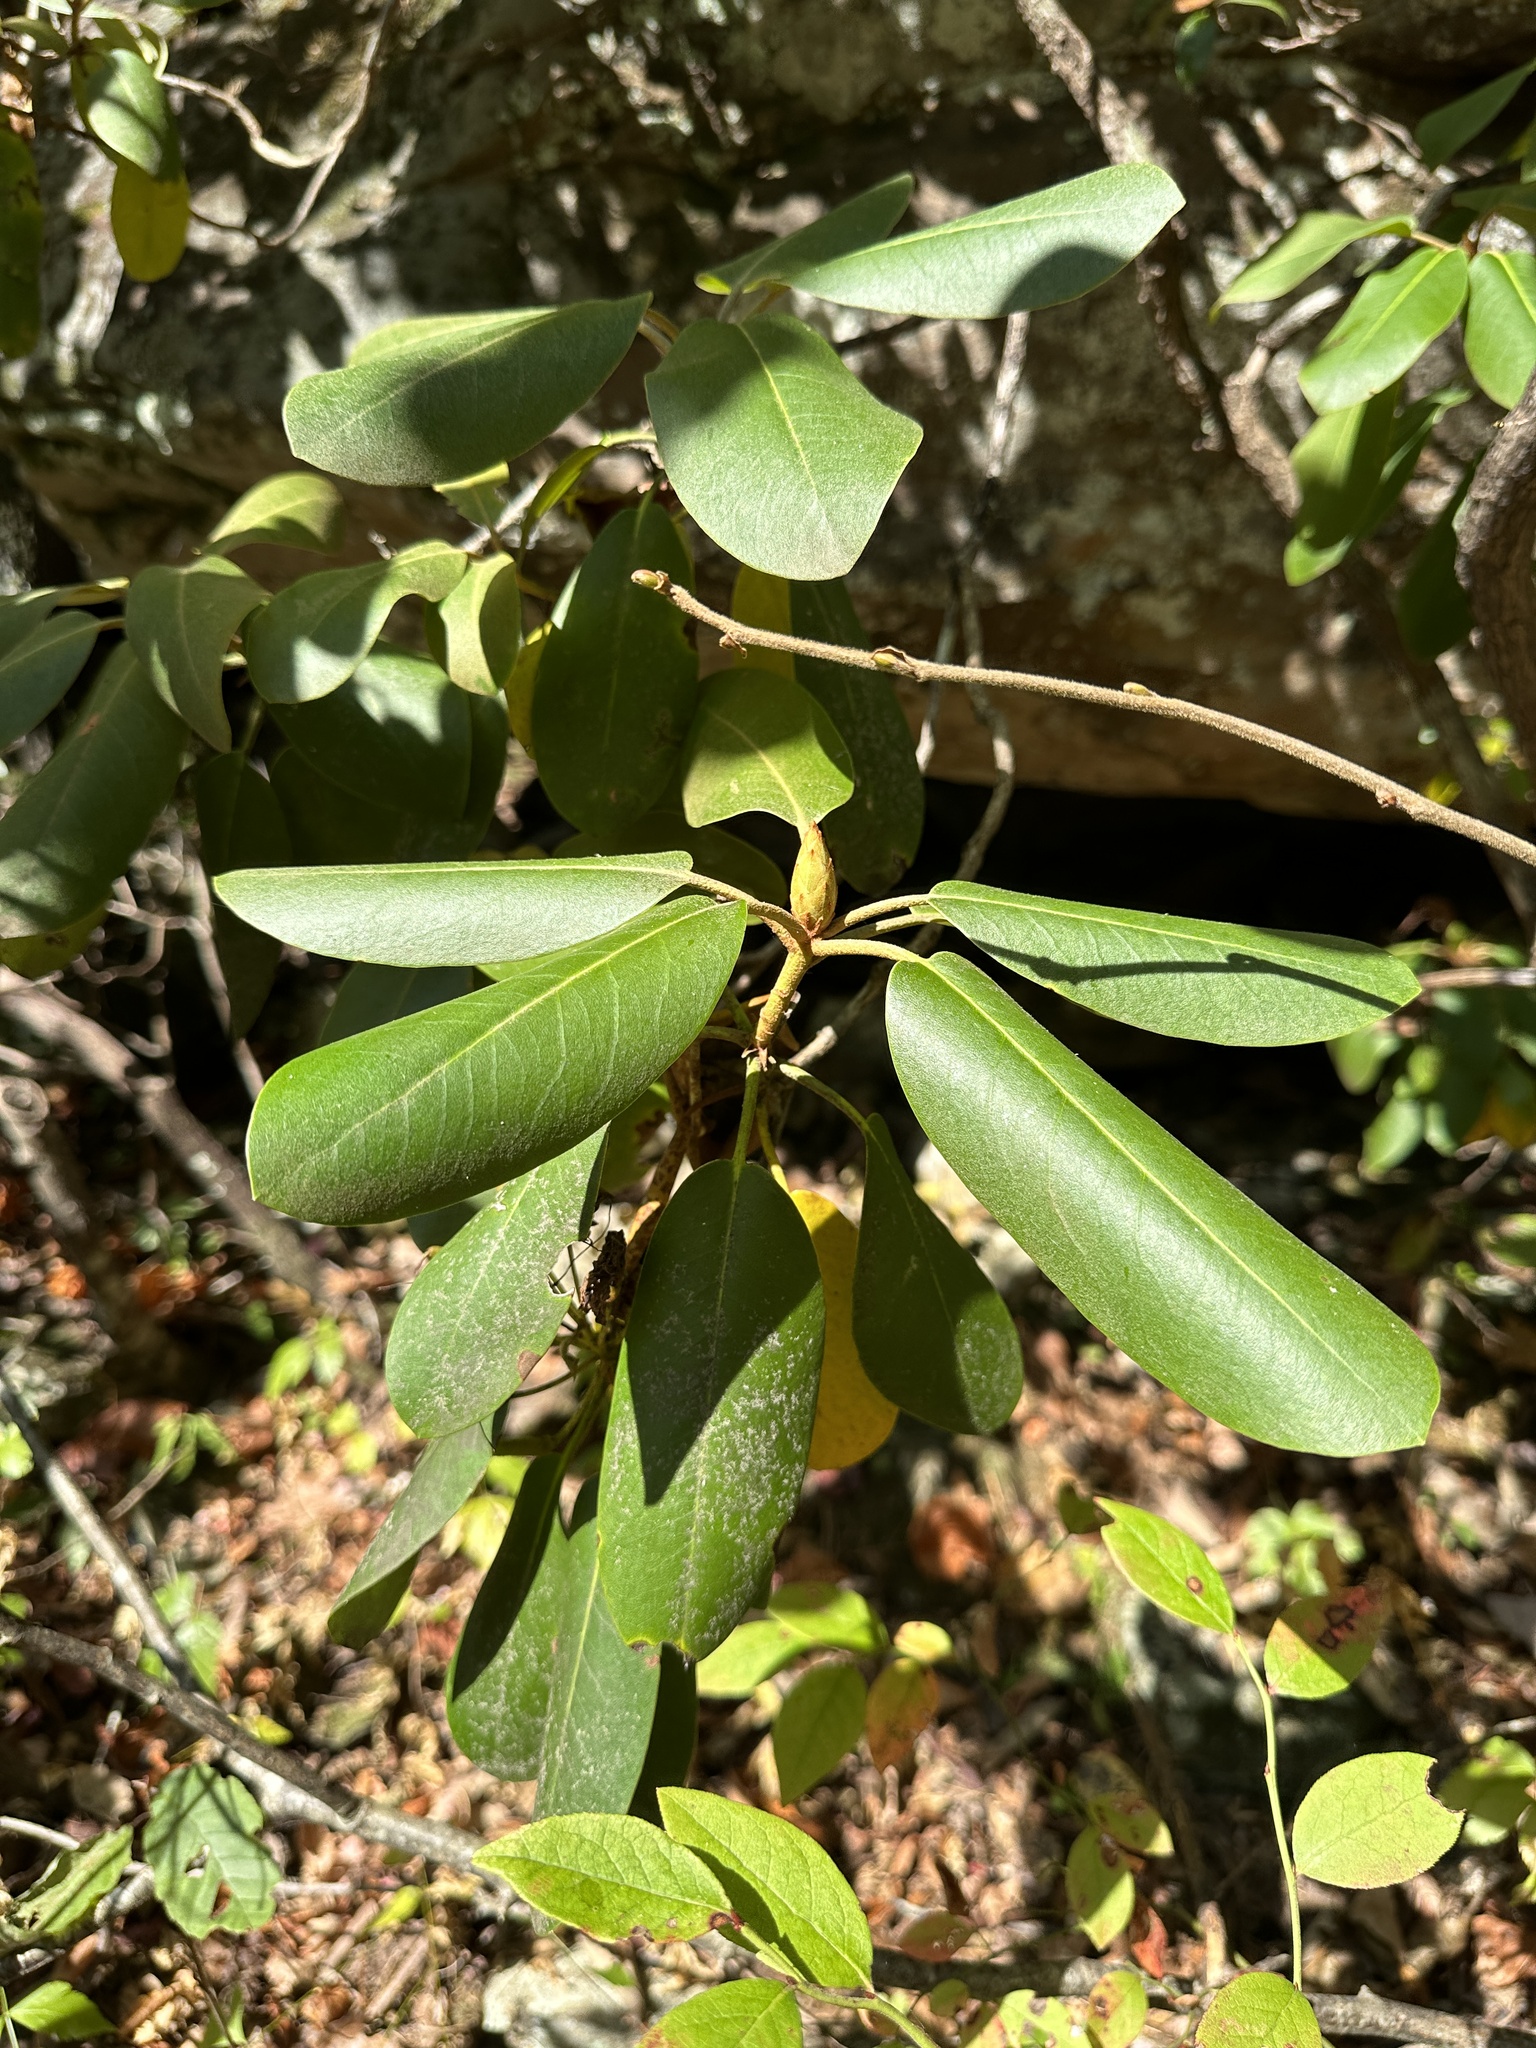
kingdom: Plantae
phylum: Tracheophyta
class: Magnoliopsida
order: Ericales
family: Ericaceae
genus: Rhododendron
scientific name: Rhododendron catawbiense
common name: Catawba rhododendron
